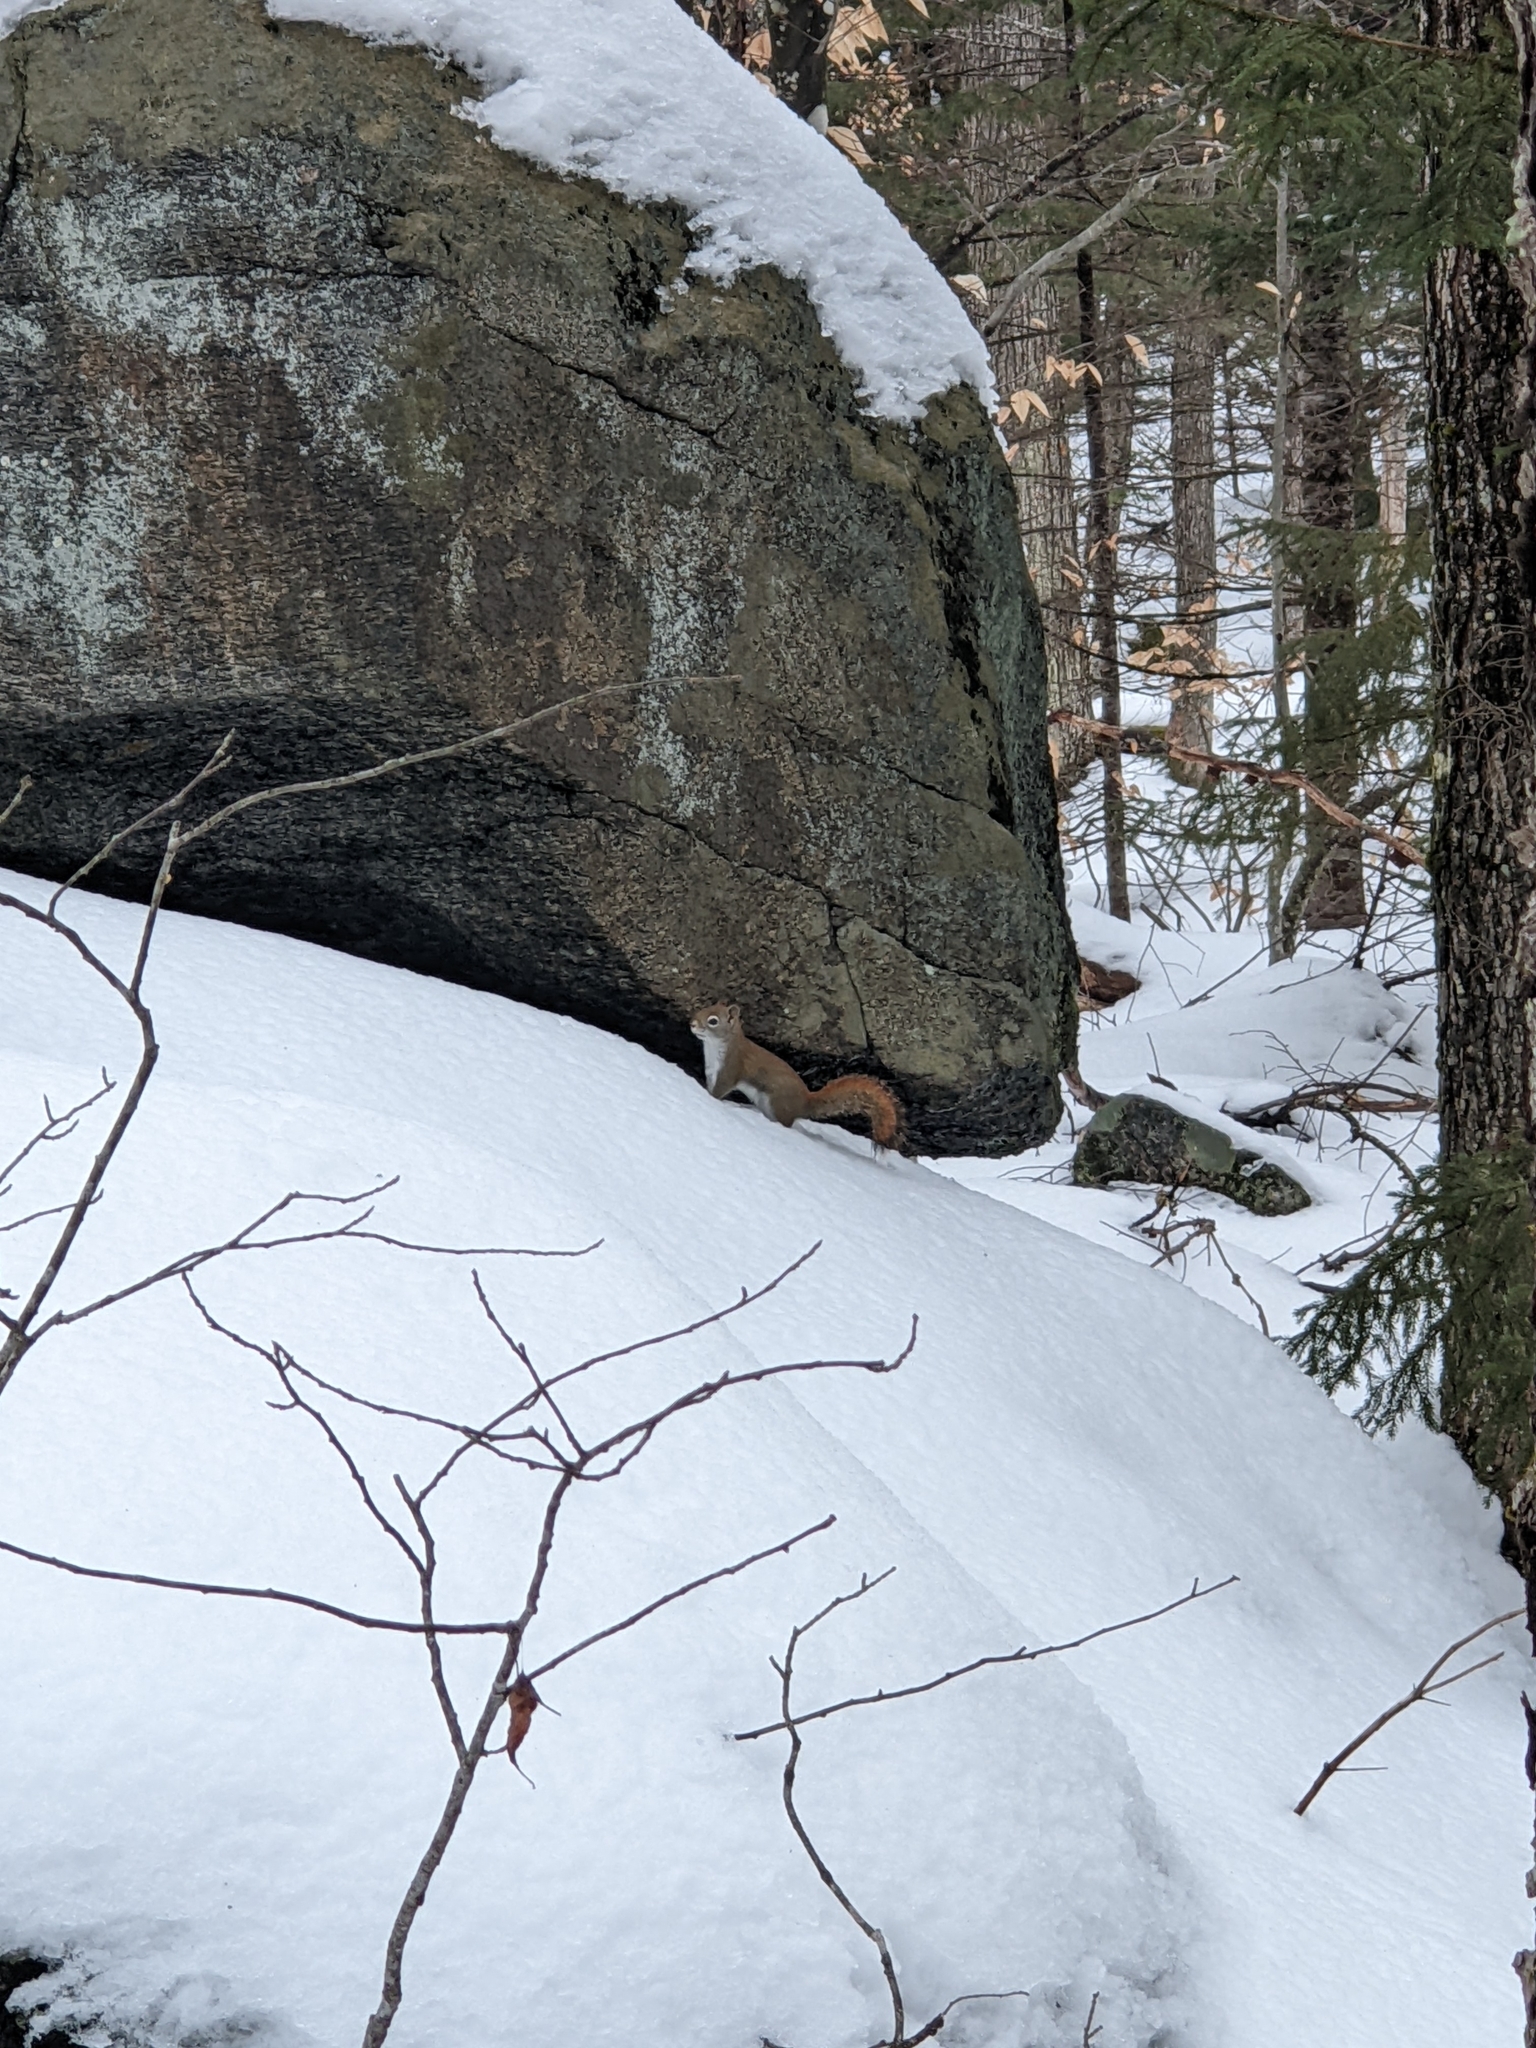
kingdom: Animalia
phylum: Chordata
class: Mammalia
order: Rodentia
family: Sciuridae
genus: Tamiasciurus
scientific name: Tamiasciurus hudsonicus
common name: Red squirrel
